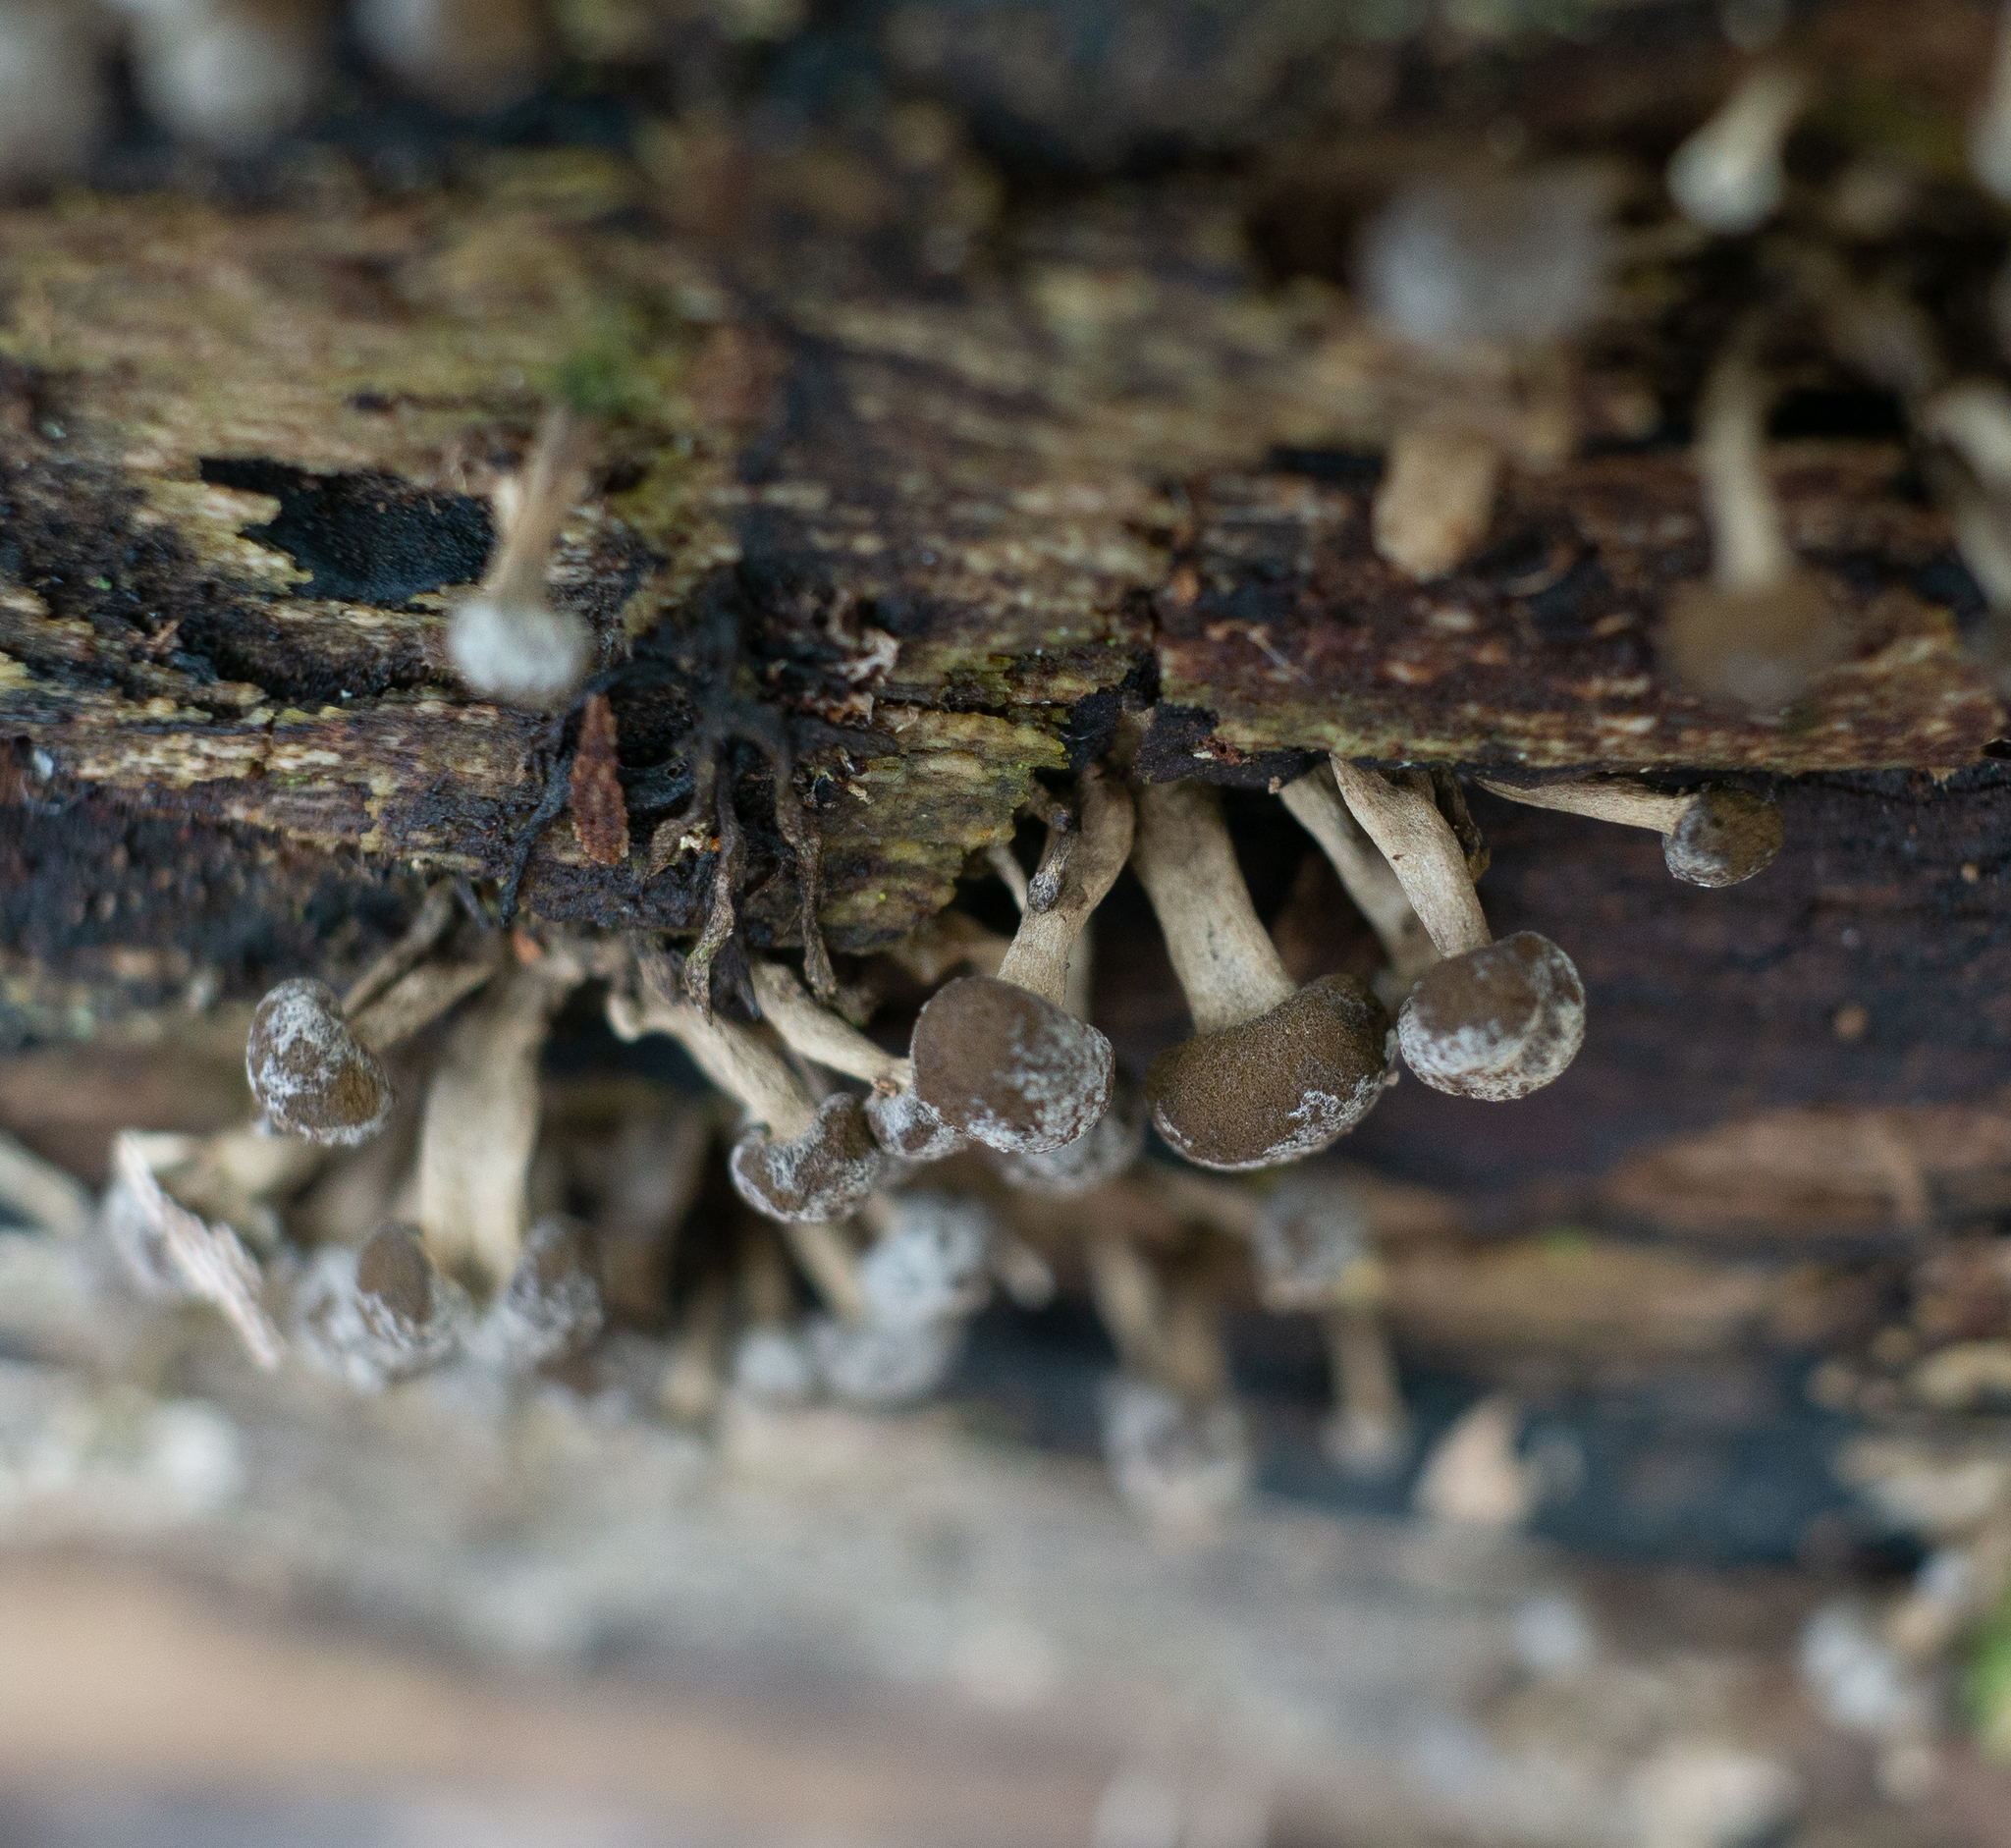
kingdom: Fungi
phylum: Basidiomycota
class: Atractiellomycetes
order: Atractiellales
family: Phleogenaceae
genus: Phleogena
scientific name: Phleogena faginea
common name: Fenugreek stalkball
